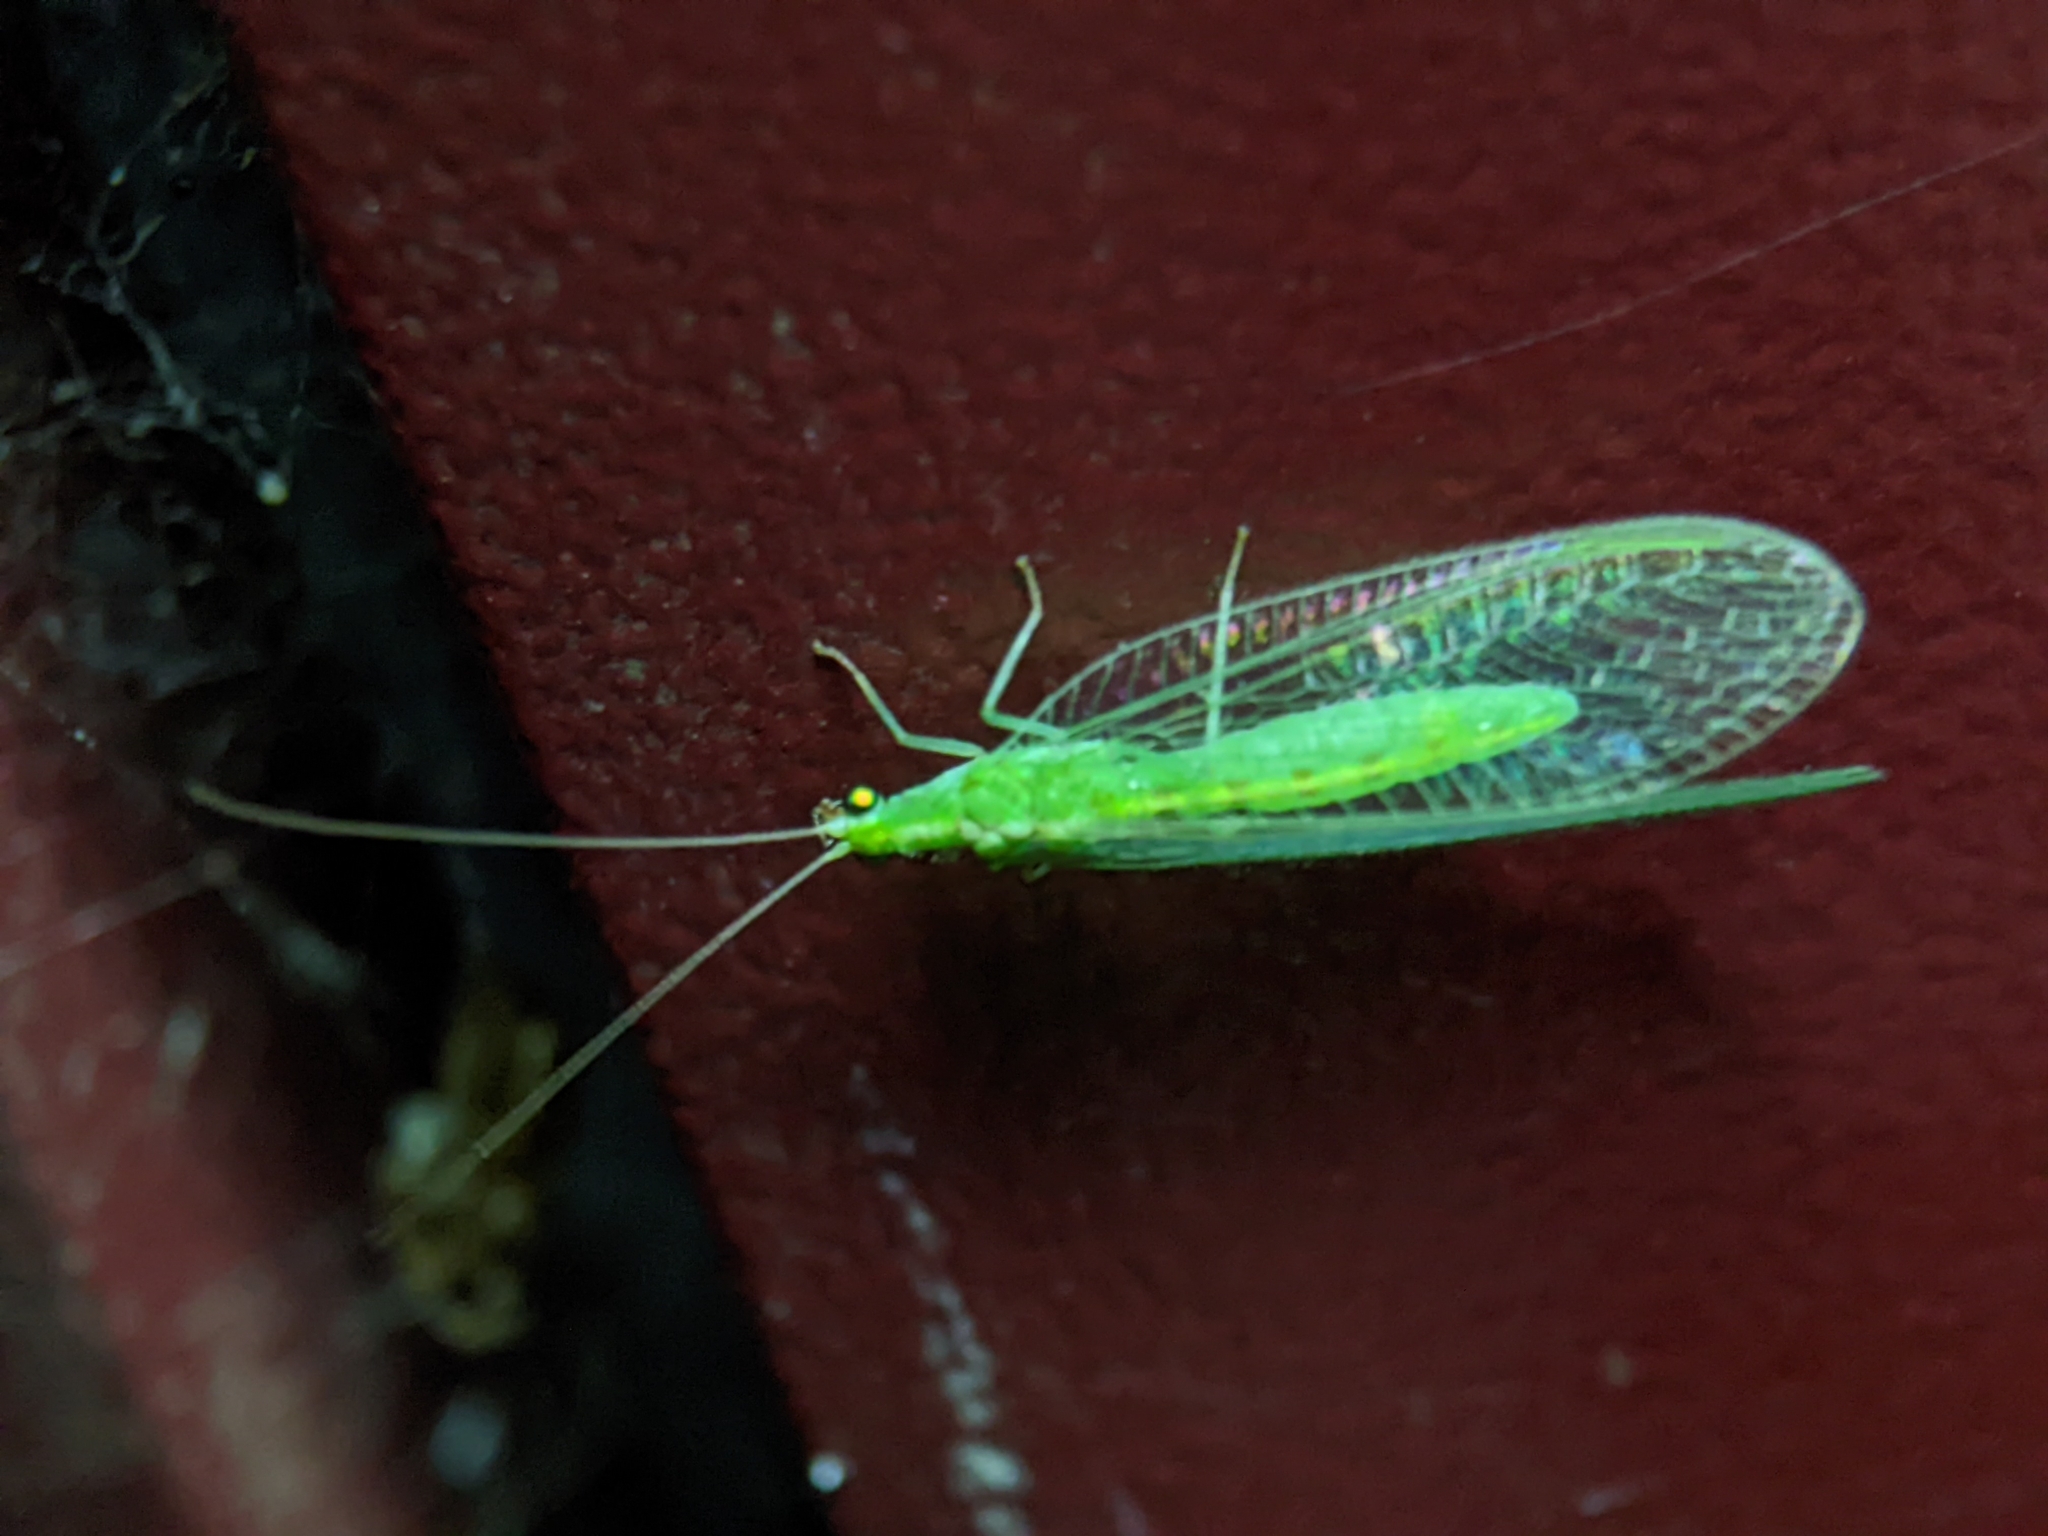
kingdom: Animalia
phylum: Arthropoda
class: Insecta
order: Neuroptera
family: Chrysopidae
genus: Chrysoperla
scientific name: Chrysoperla
